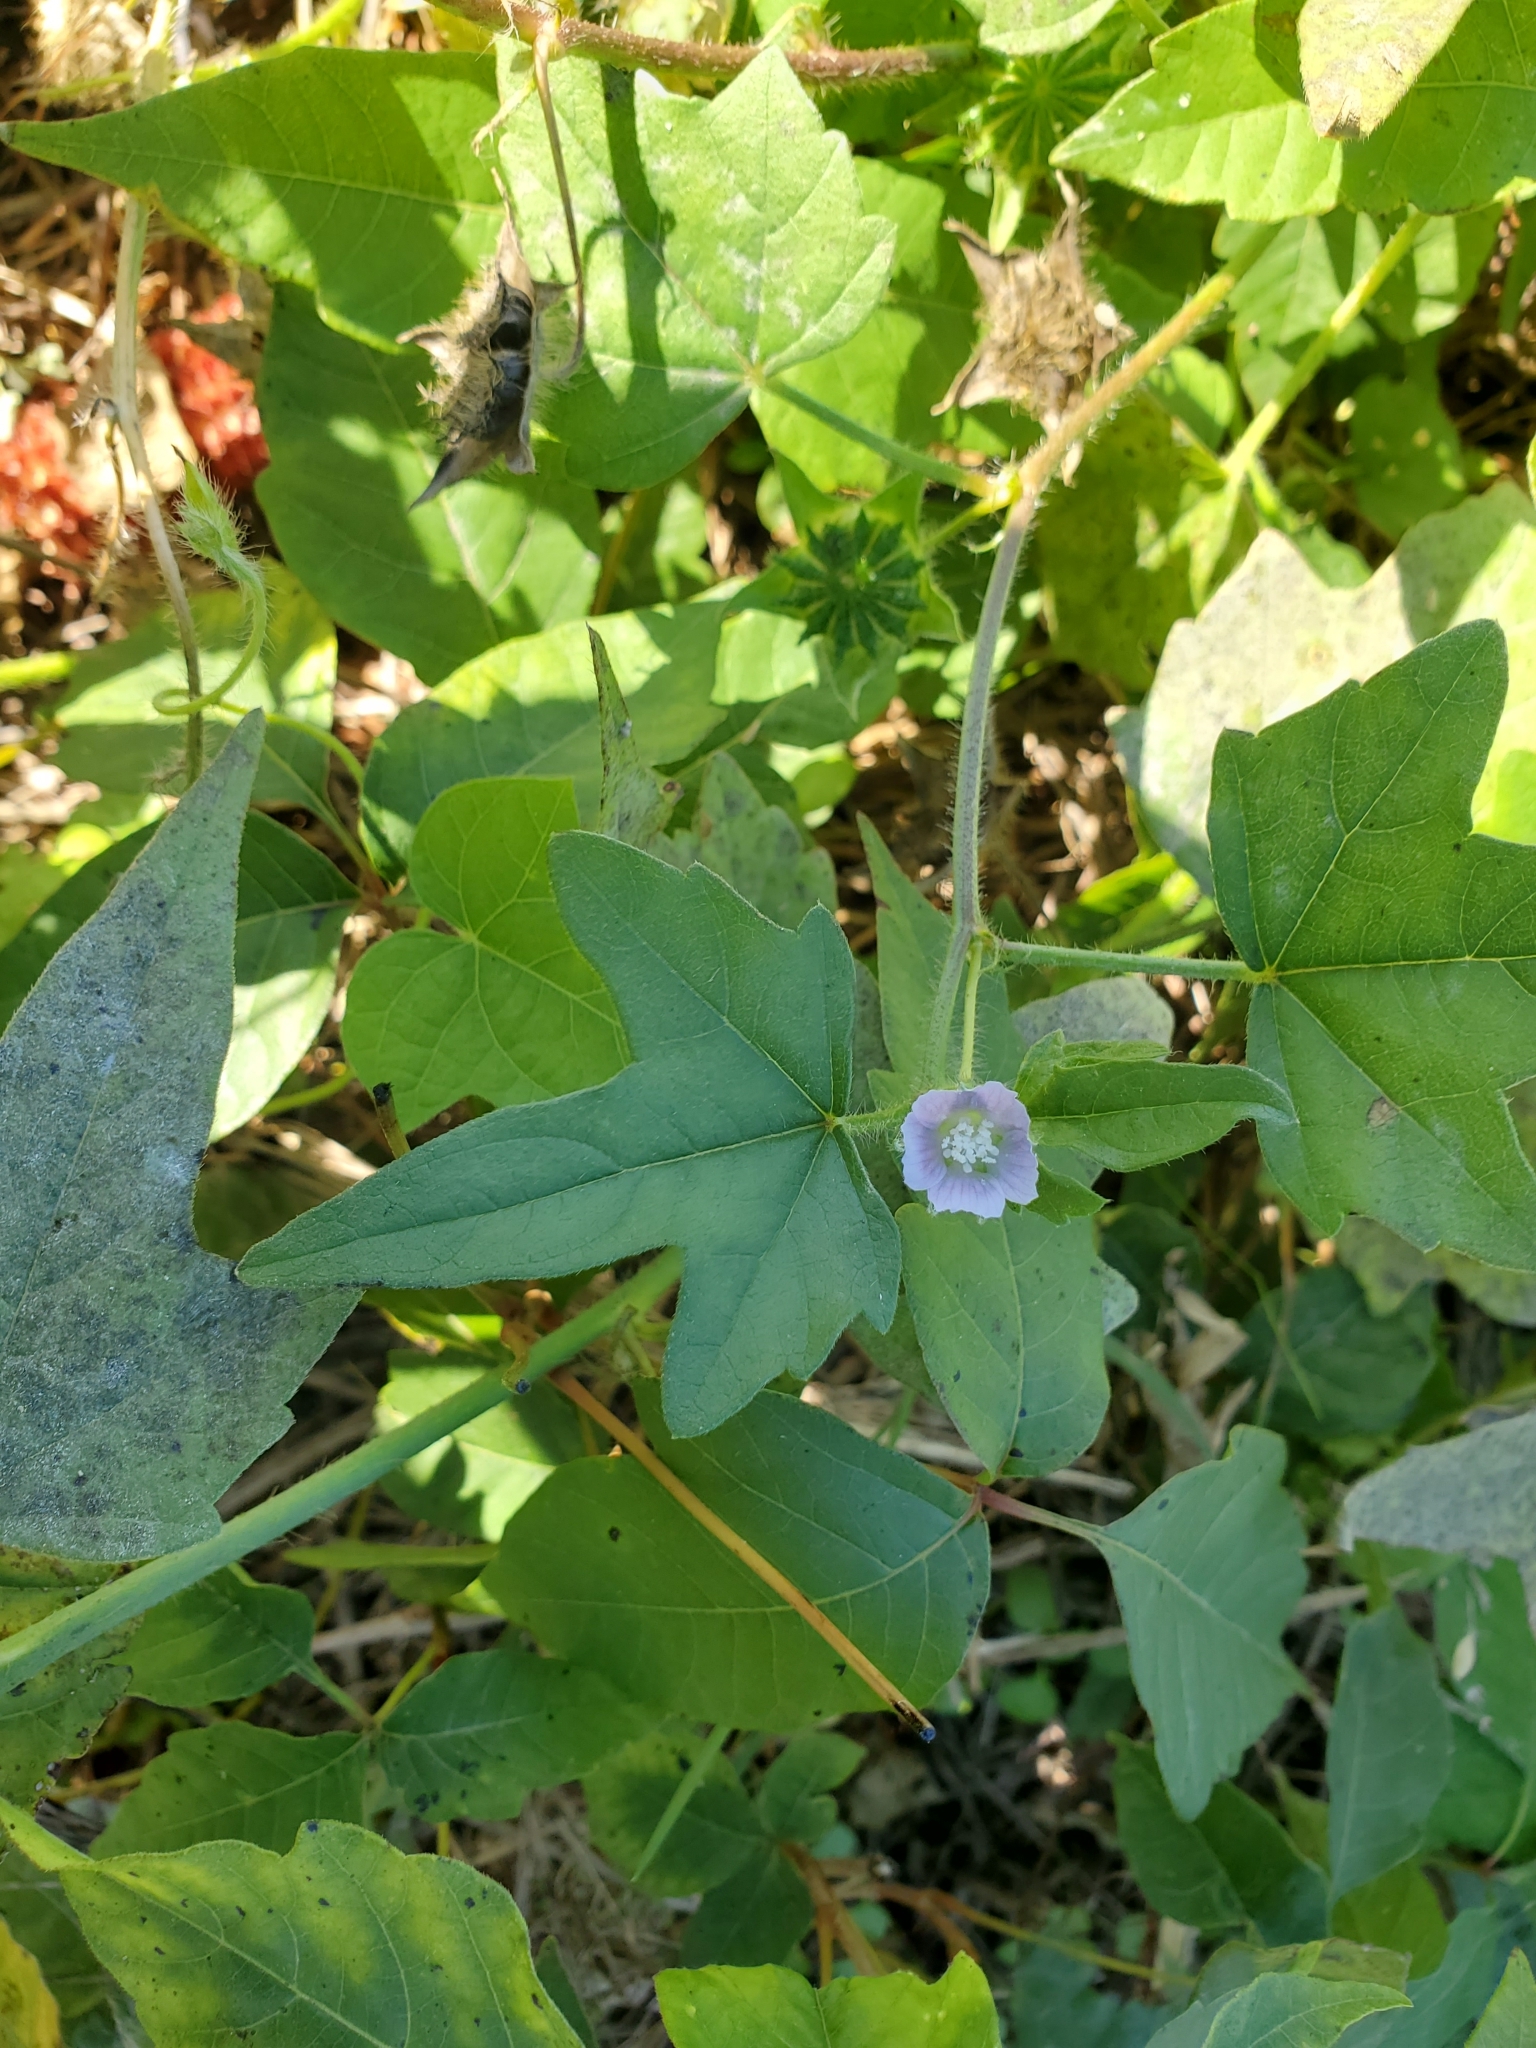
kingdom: Plantae
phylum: Tracheophyta
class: Magnoliopsida
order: Malvales
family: Malvaceae
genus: Anoda
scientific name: Anoda cristata
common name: Spurred anoda
